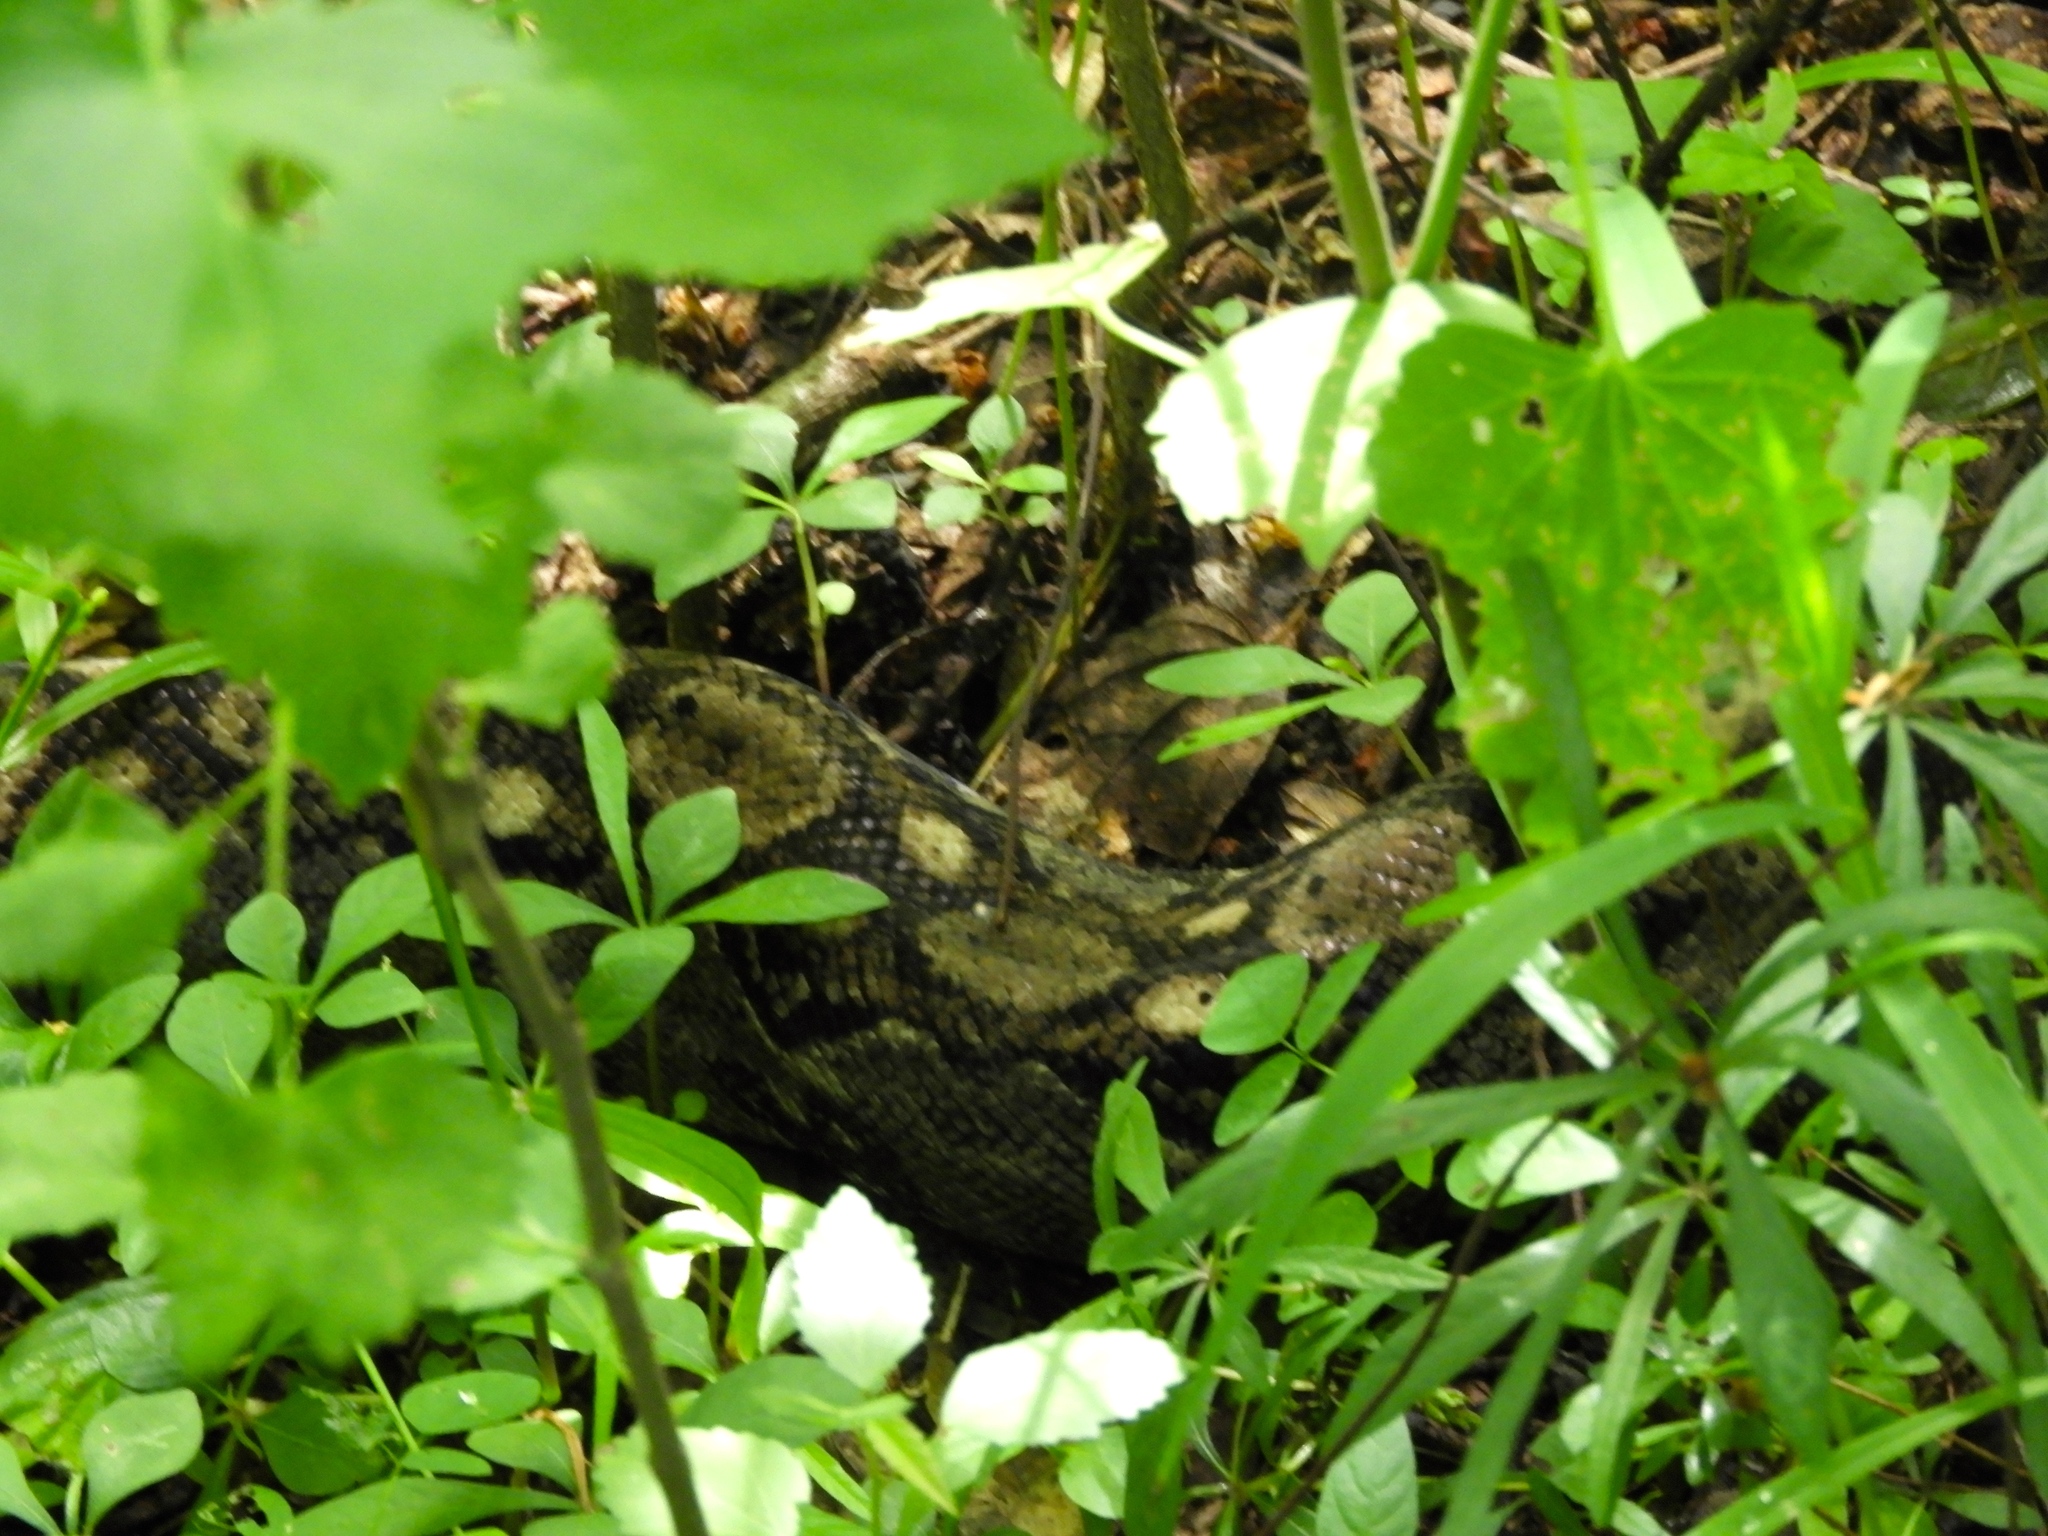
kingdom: Animalia
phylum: Chordata
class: Squamata
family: Boidae
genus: Boa
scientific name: Boa
